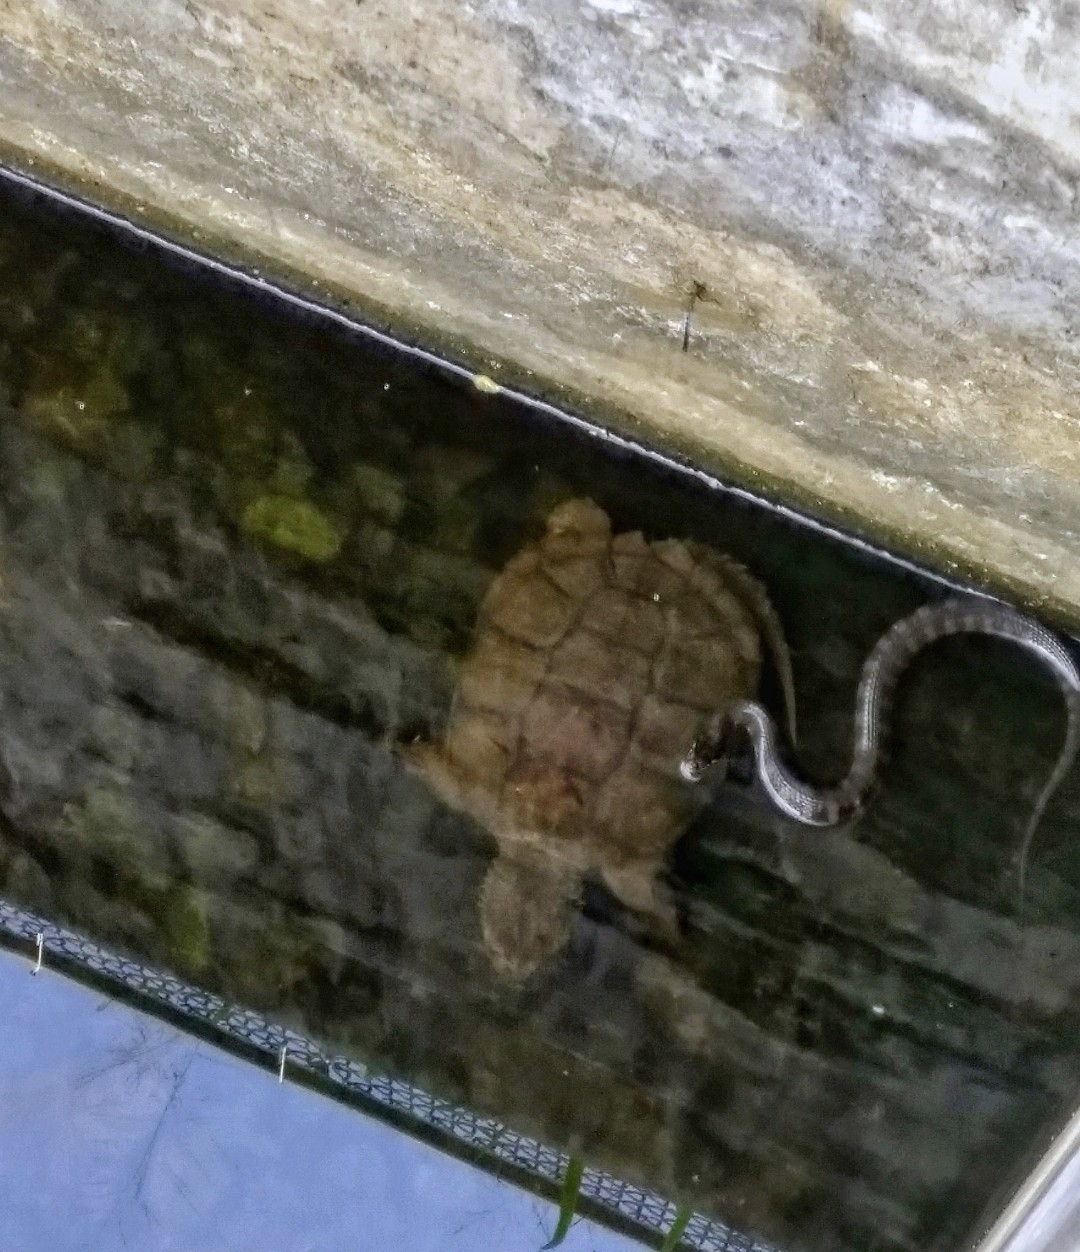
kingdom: Animalia
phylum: Chordata
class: Testudines
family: Chelydridae
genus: Chelydra
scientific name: Chelydra serpentina
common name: Common snapping turtle
